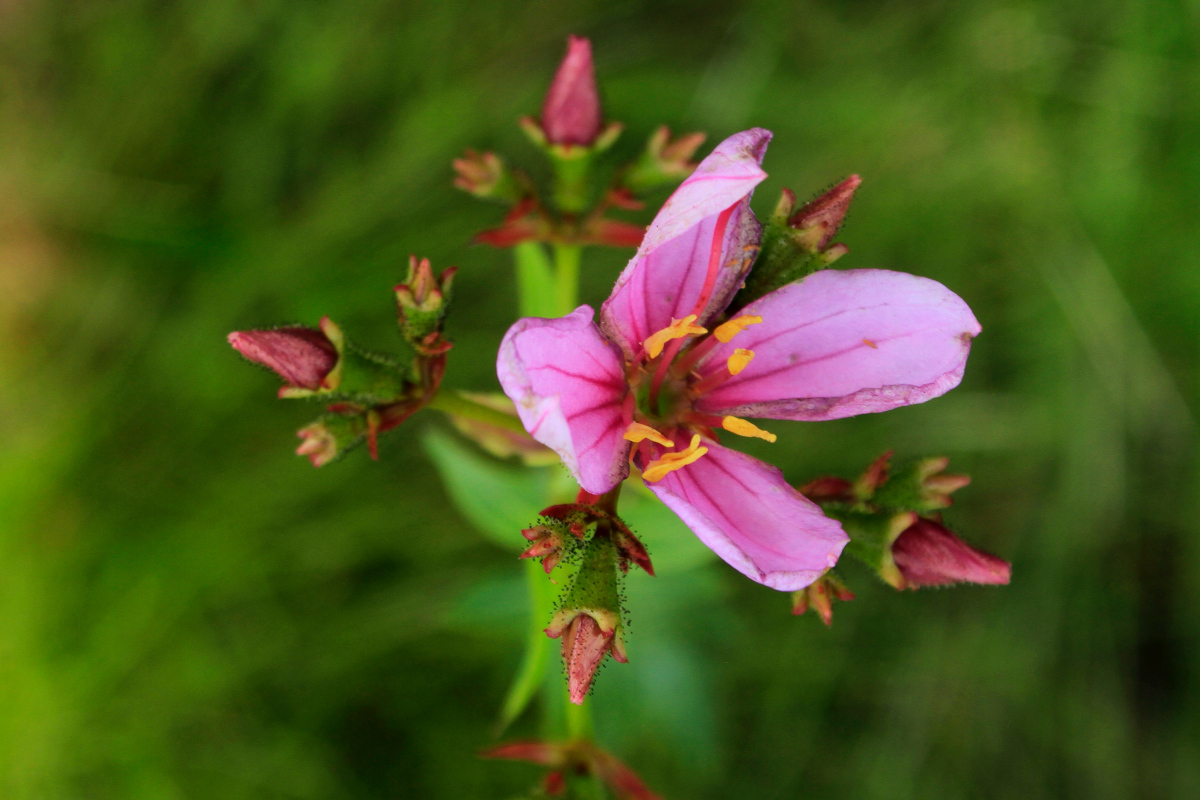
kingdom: Plantae
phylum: Tracheophyta
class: Magnoliopsida
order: Myrtales
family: Melastomataceae
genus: Rhexia
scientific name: Rhexia alifanus
